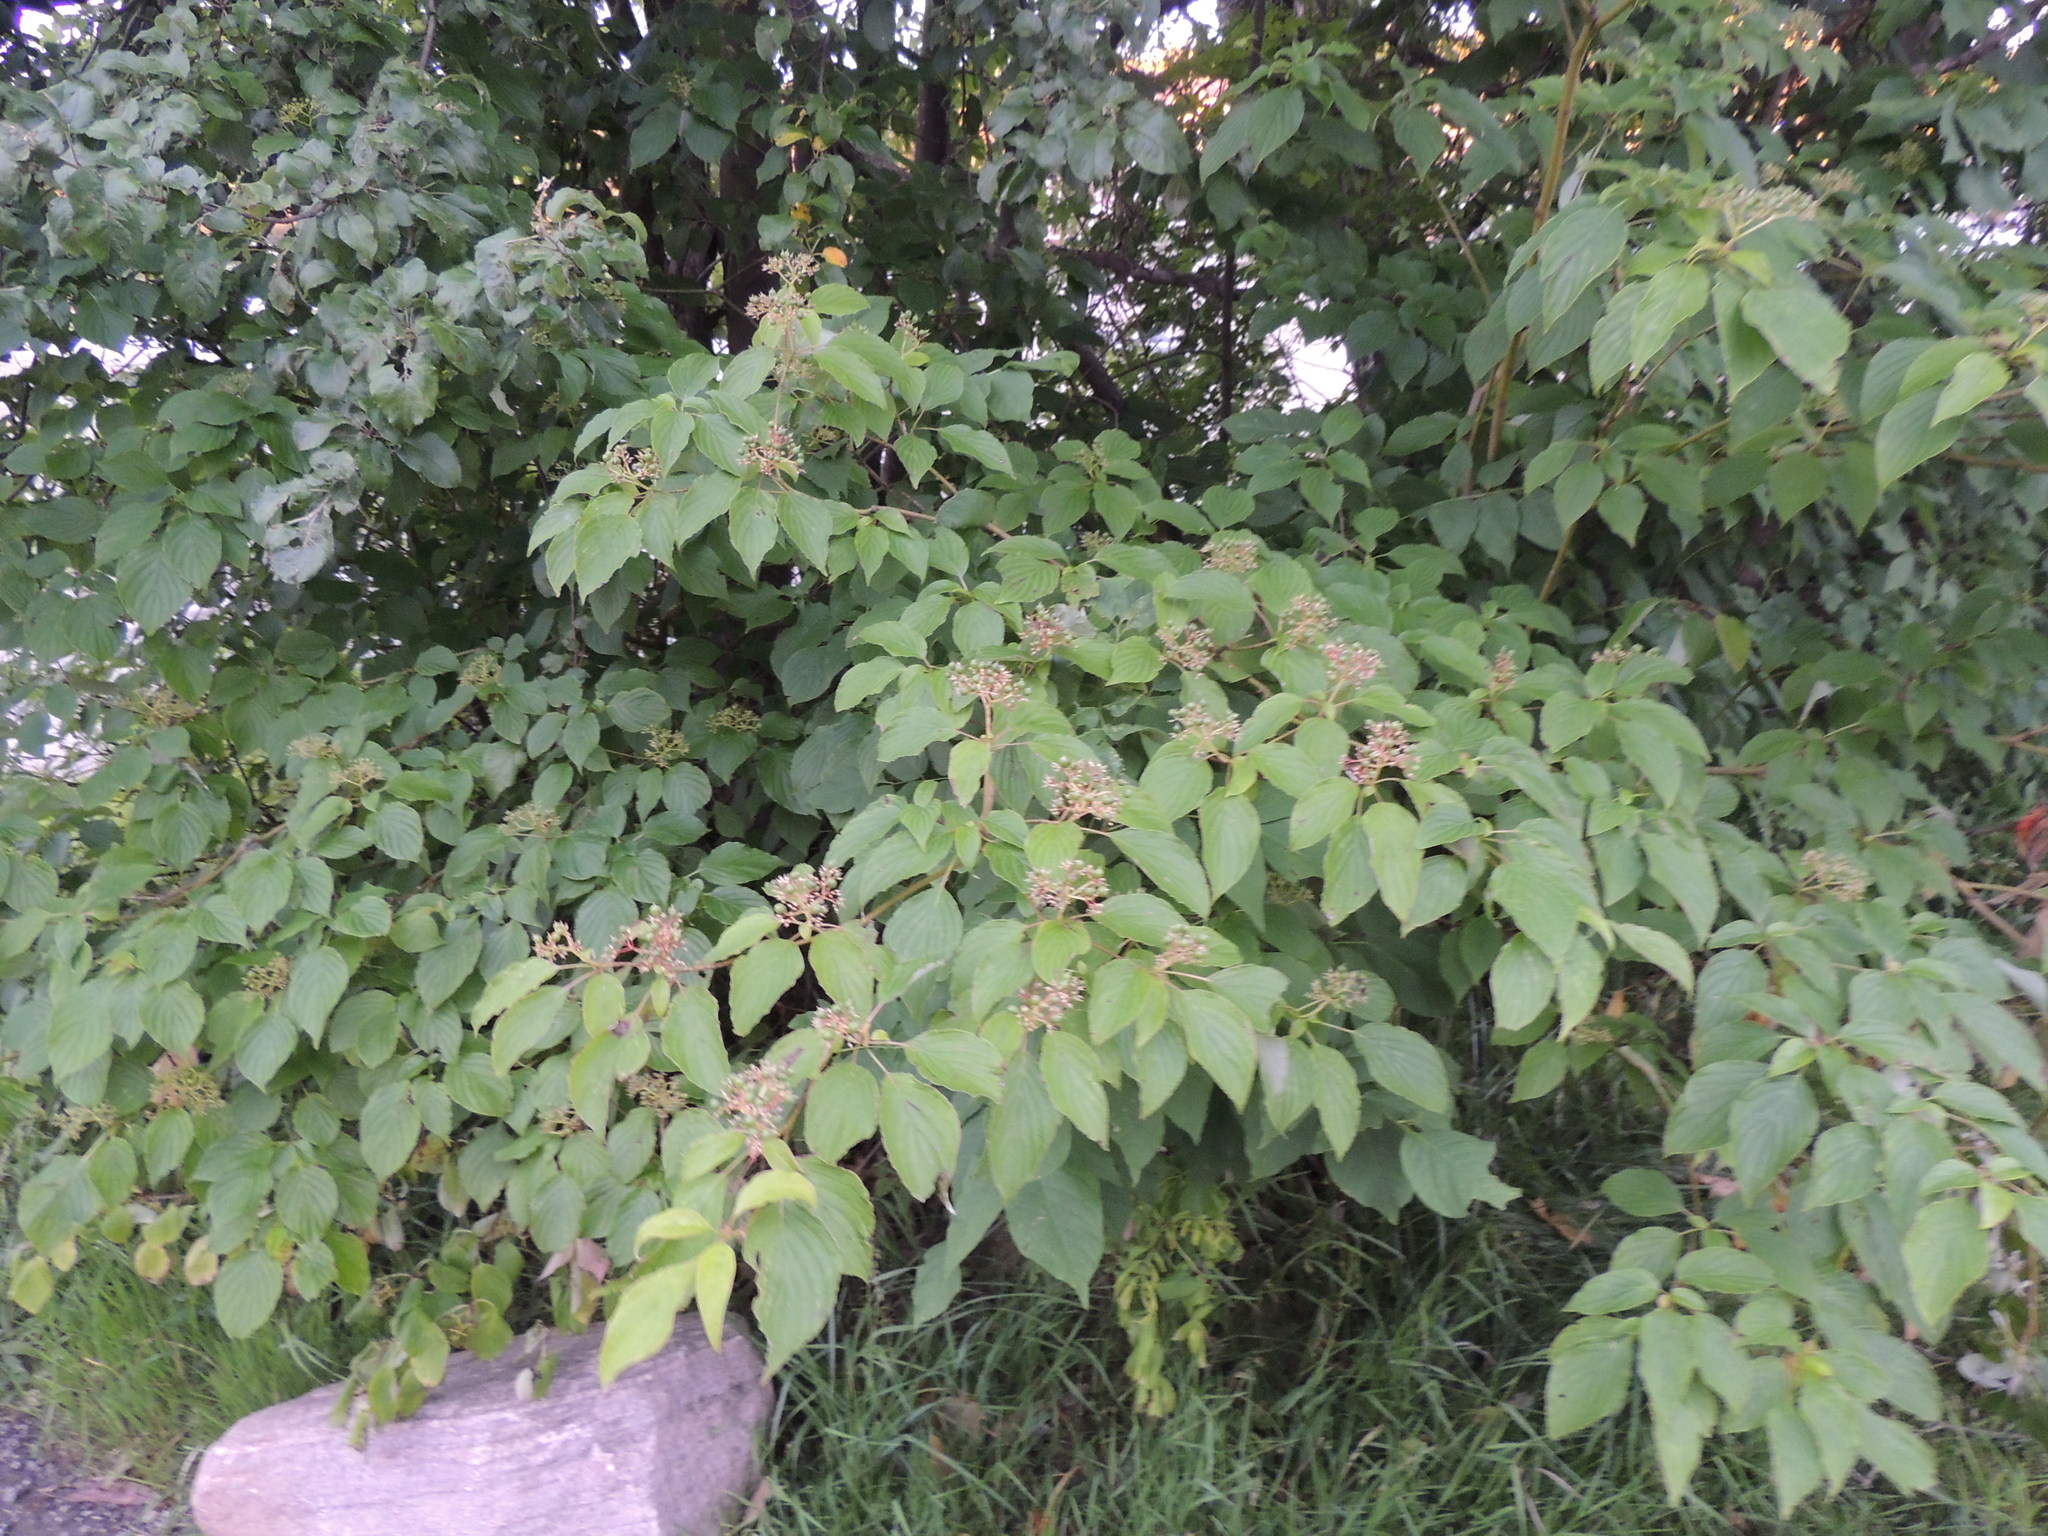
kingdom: Plantae
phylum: Tracheophyta
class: Magnoliopsida
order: Cornales
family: Cornaceae
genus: Cornus
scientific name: Cornus alternifolia
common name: Pagoda dogwood
